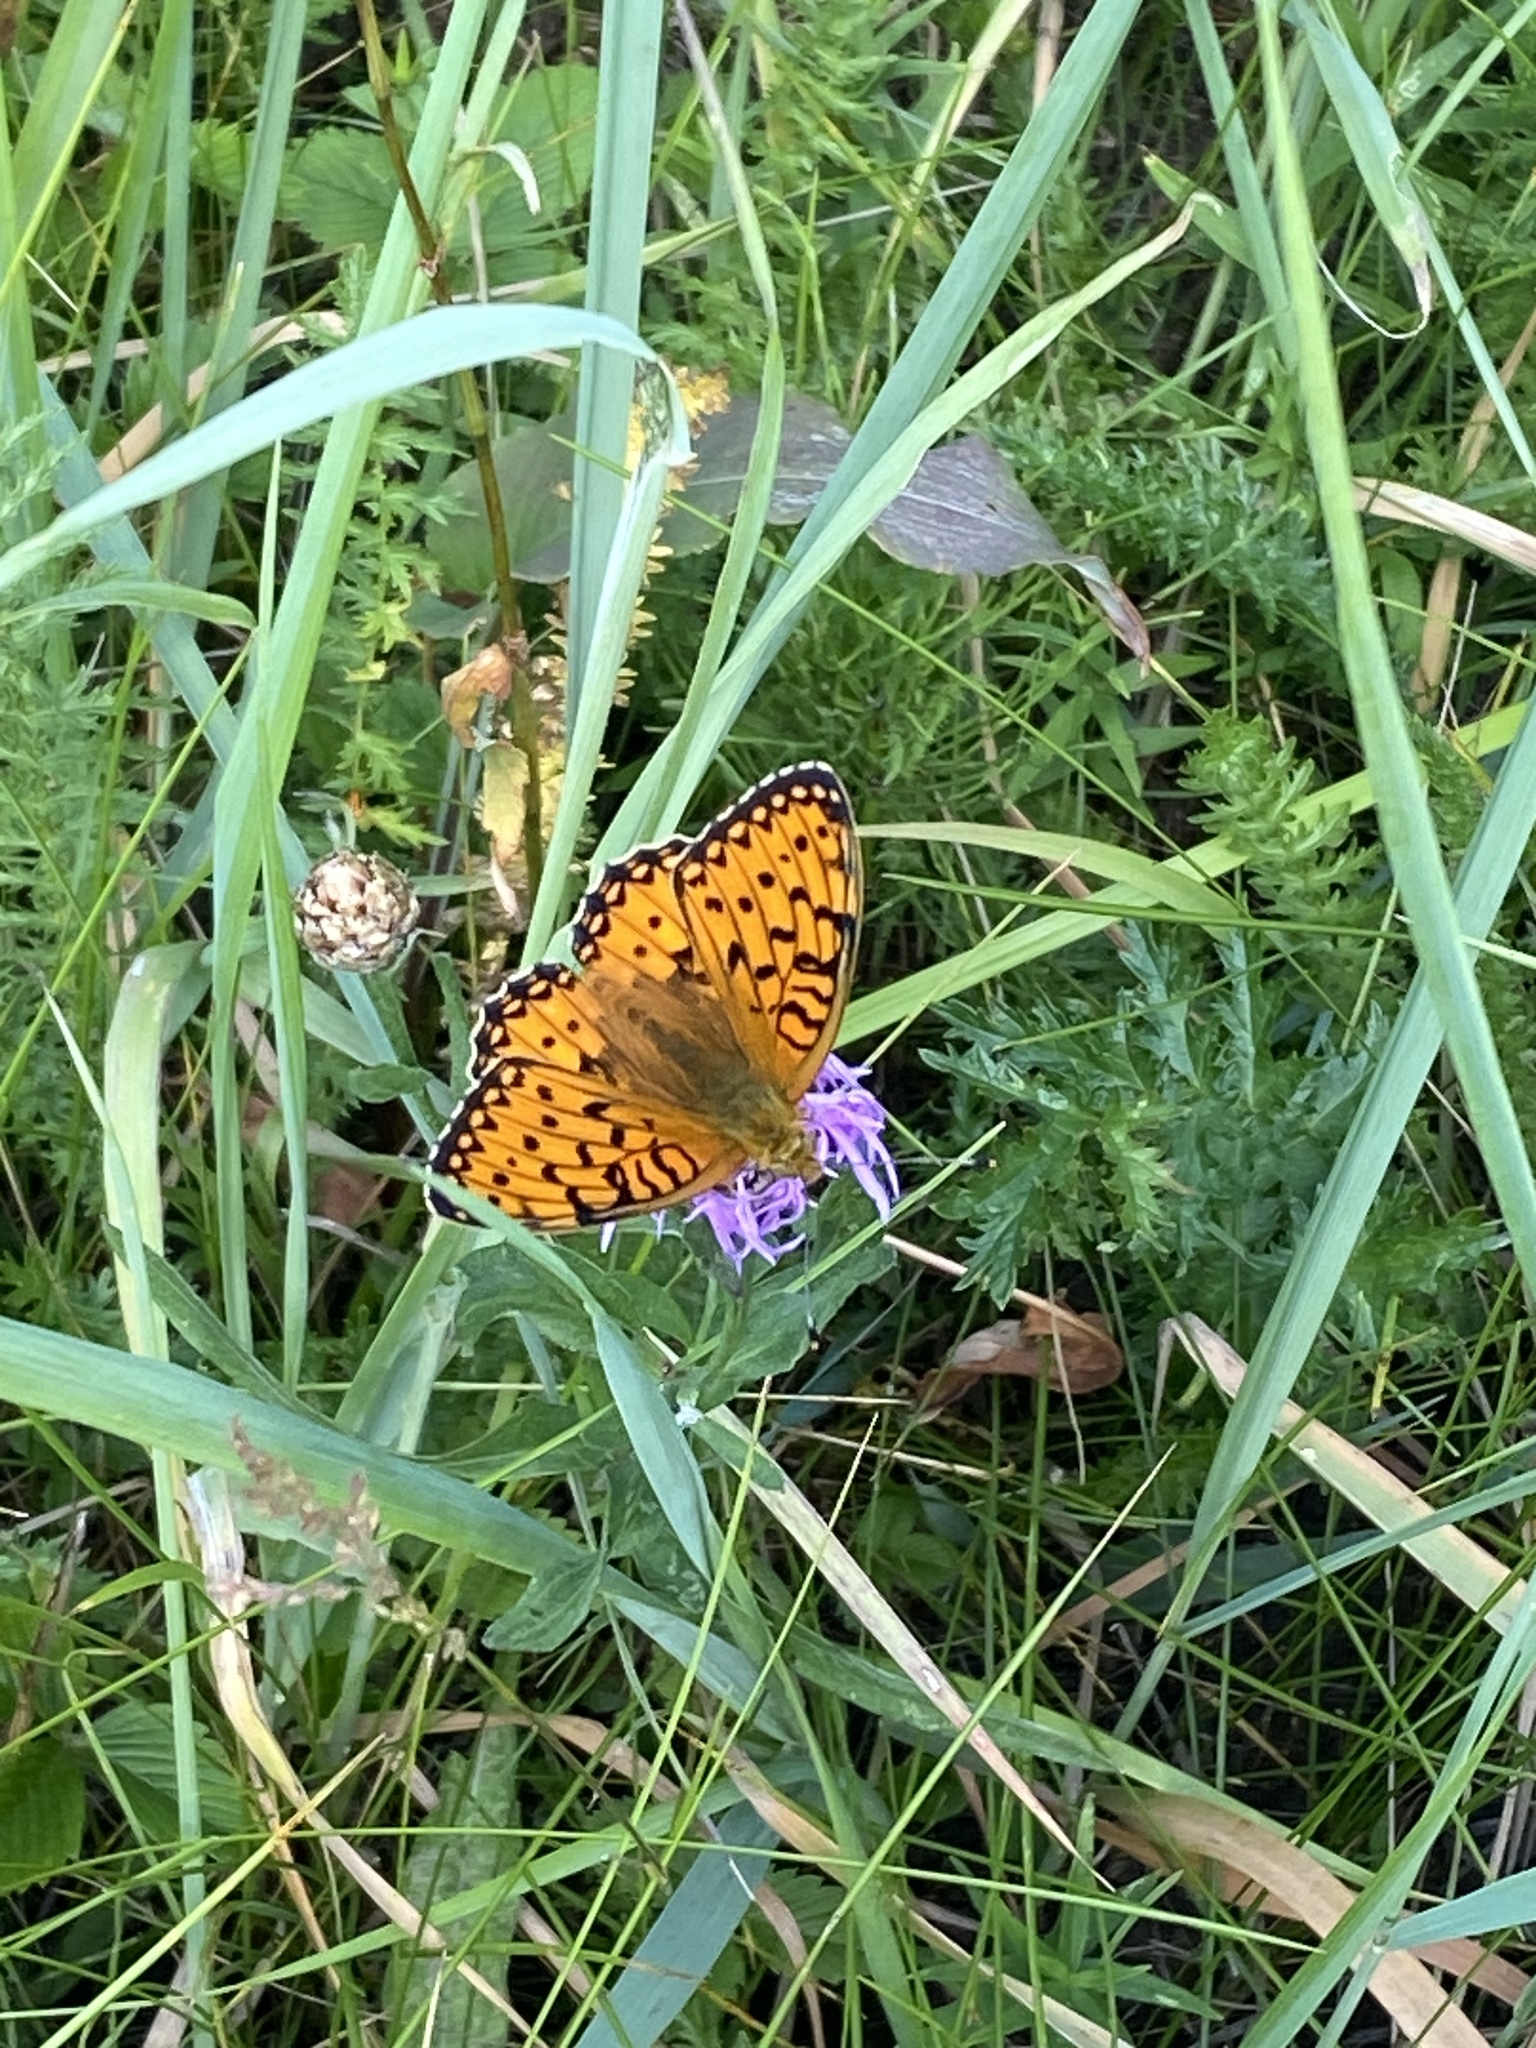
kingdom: Animalia
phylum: Arthropoda
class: Insecta
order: Lepidoptera
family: Nymphalidae
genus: Speyeria
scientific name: Speyeria aglaja
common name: Dark green fritillary
